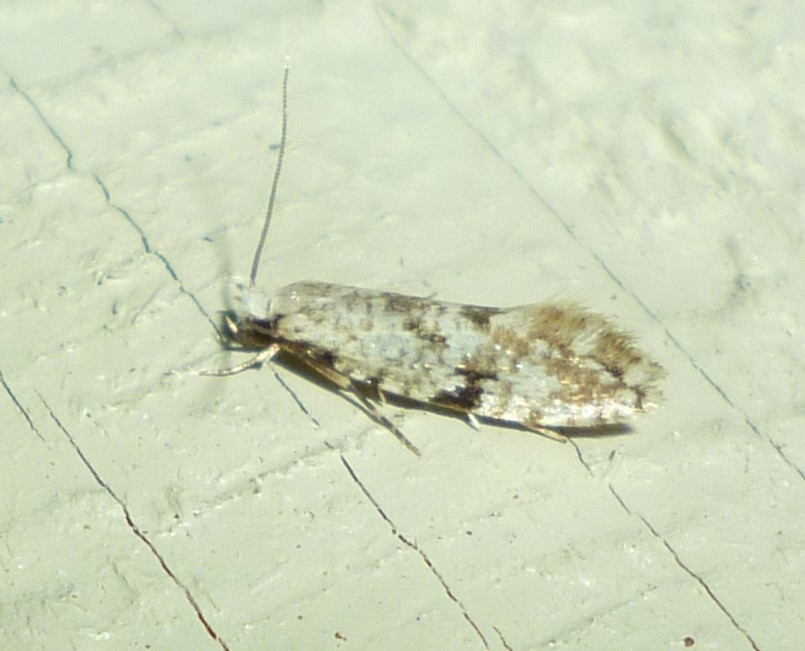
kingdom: Animalia
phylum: Arthropoda
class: Insecta
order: Lepidoptera
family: Tineidae
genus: Nemapogon
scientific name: Nemapogon auropulvella
